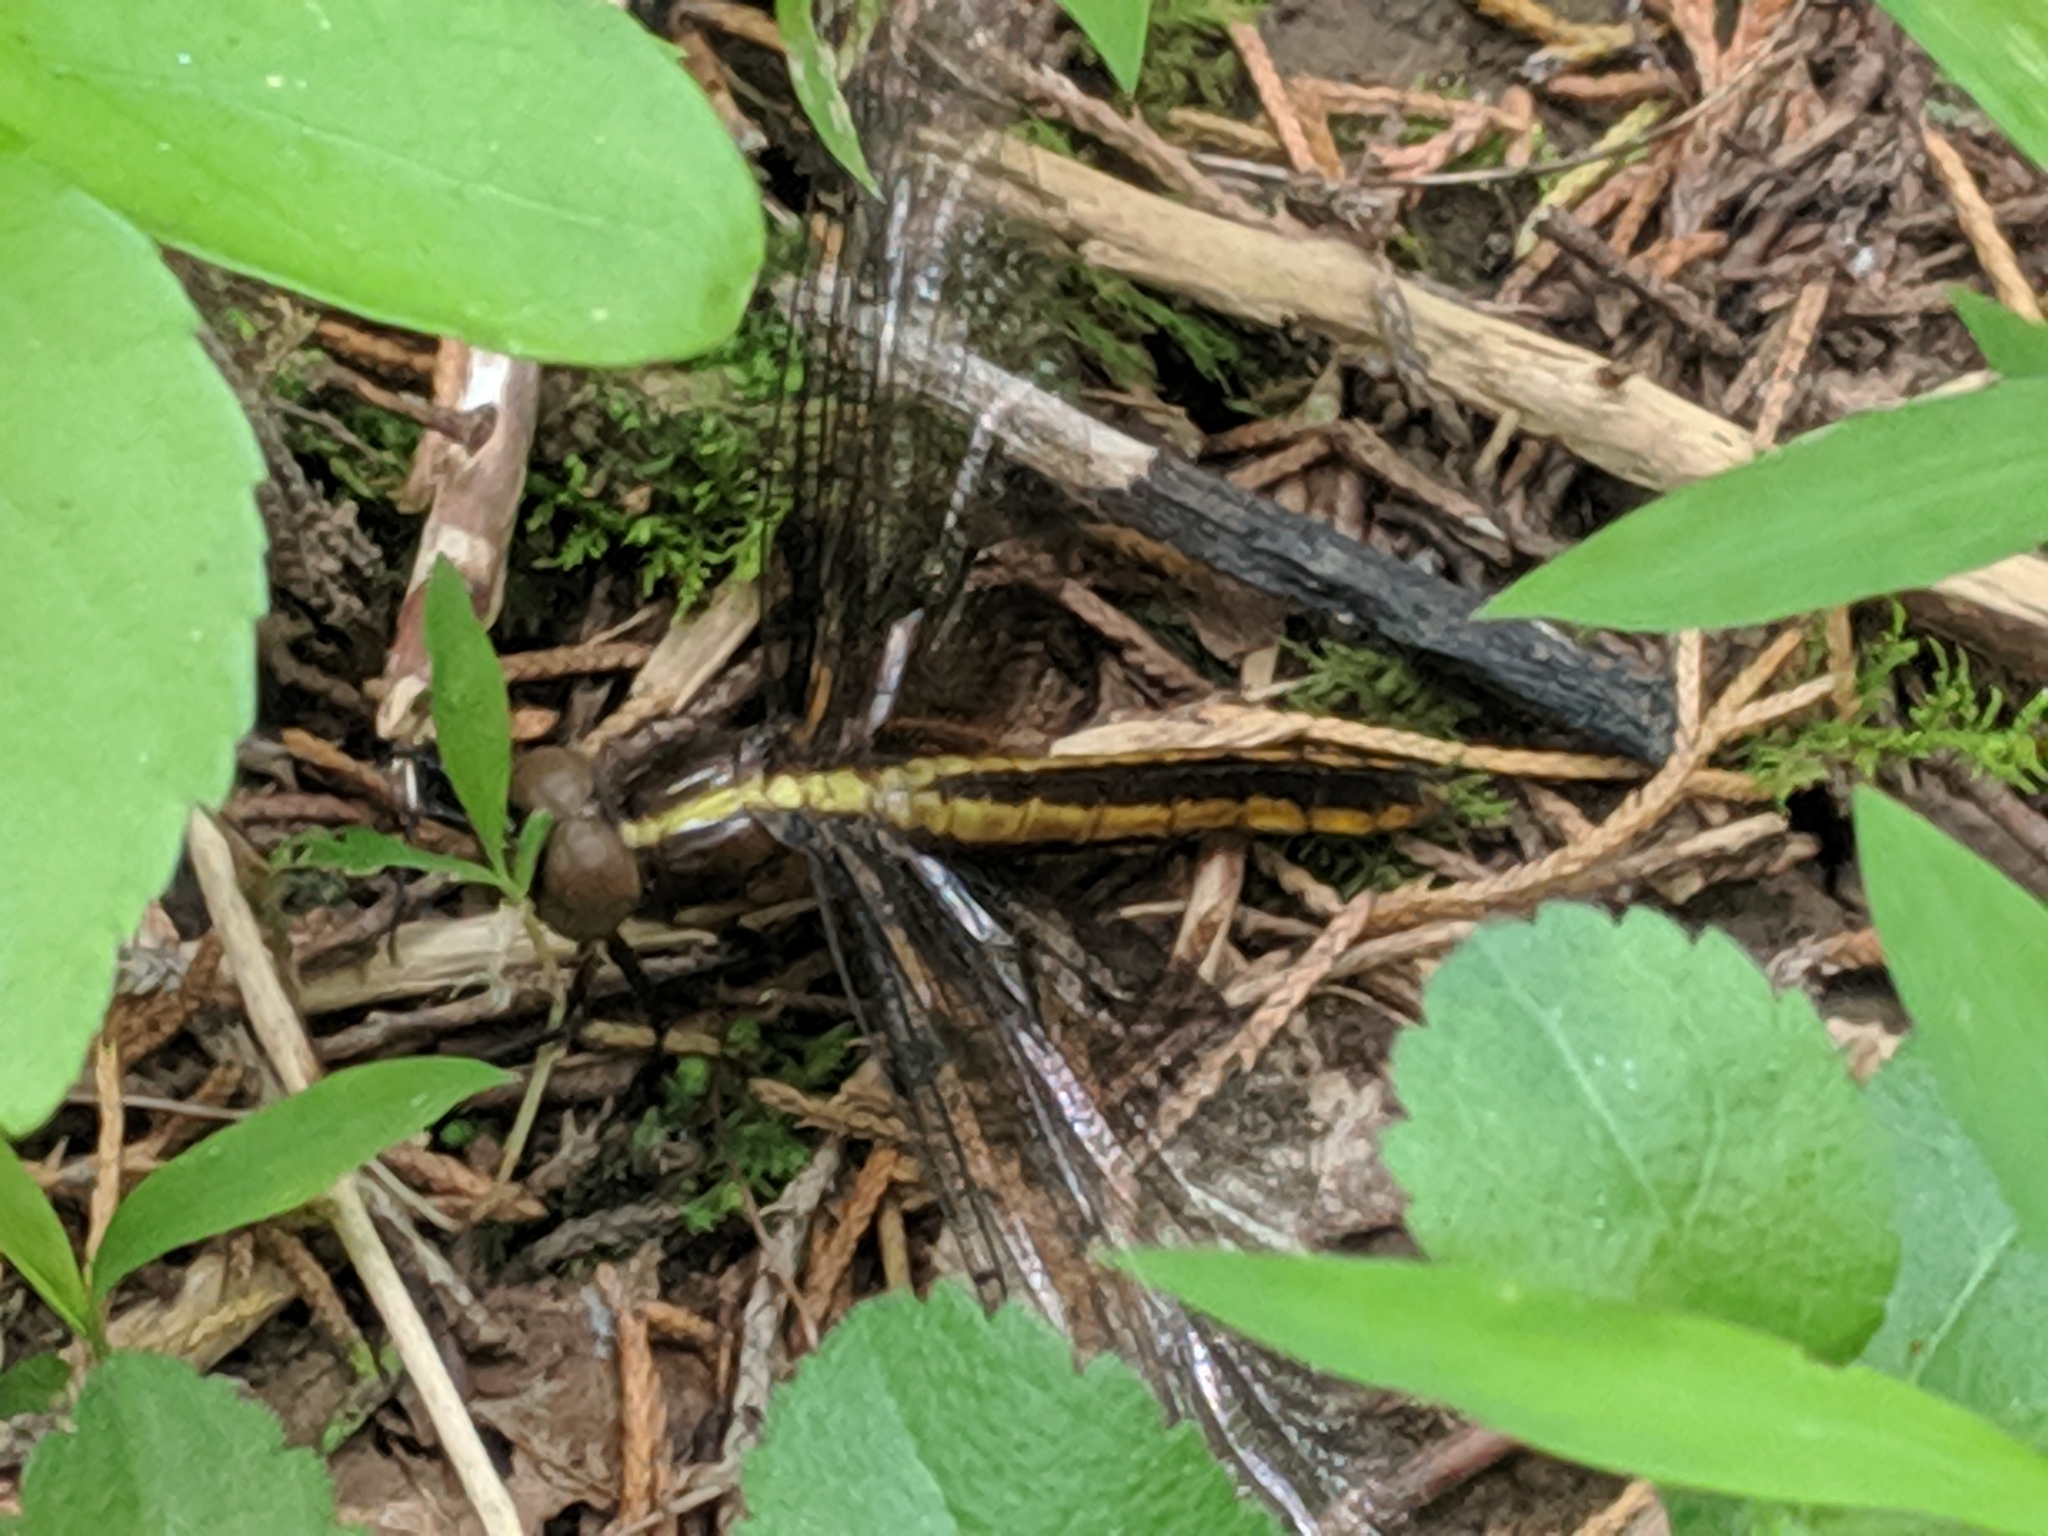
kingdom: Animalia
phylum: Arthropoda
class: Insecta
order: Odonata
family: Libellulidae
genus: Libellula
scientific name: Libellula luctuosa
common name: Widow skimmer
